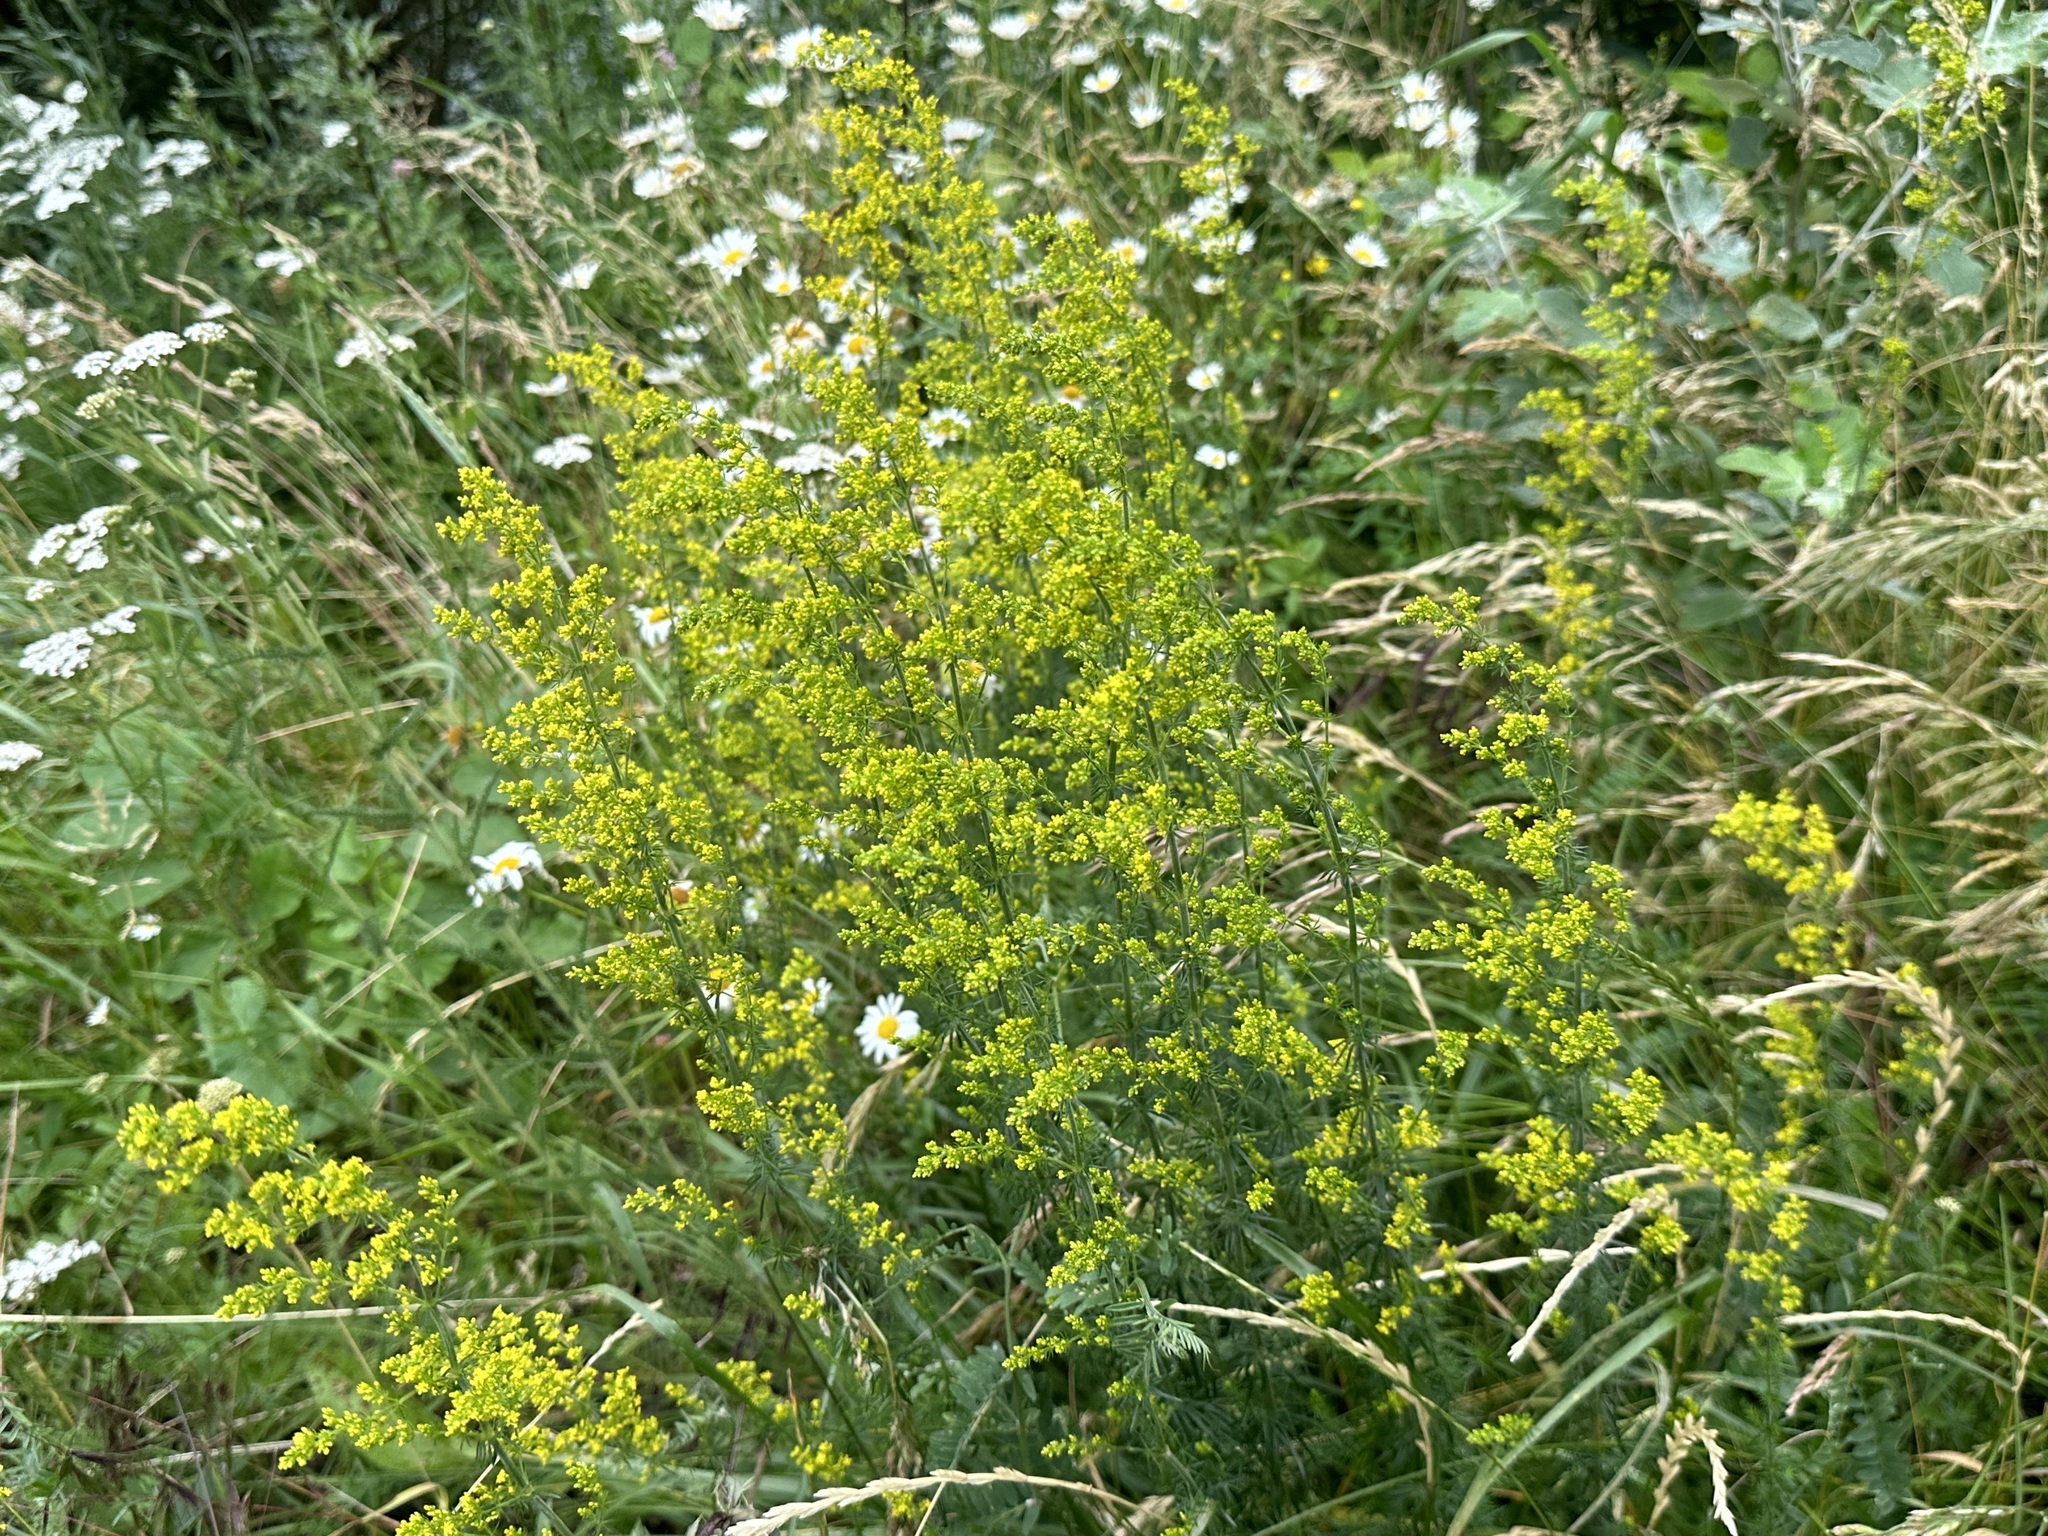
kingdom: Plantae
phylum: Tracheophyta
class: Magnoliopsida
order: Gentianales
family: Rubiaceae
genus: Galium
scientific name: Galium verum
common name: Lady's bedstraw
